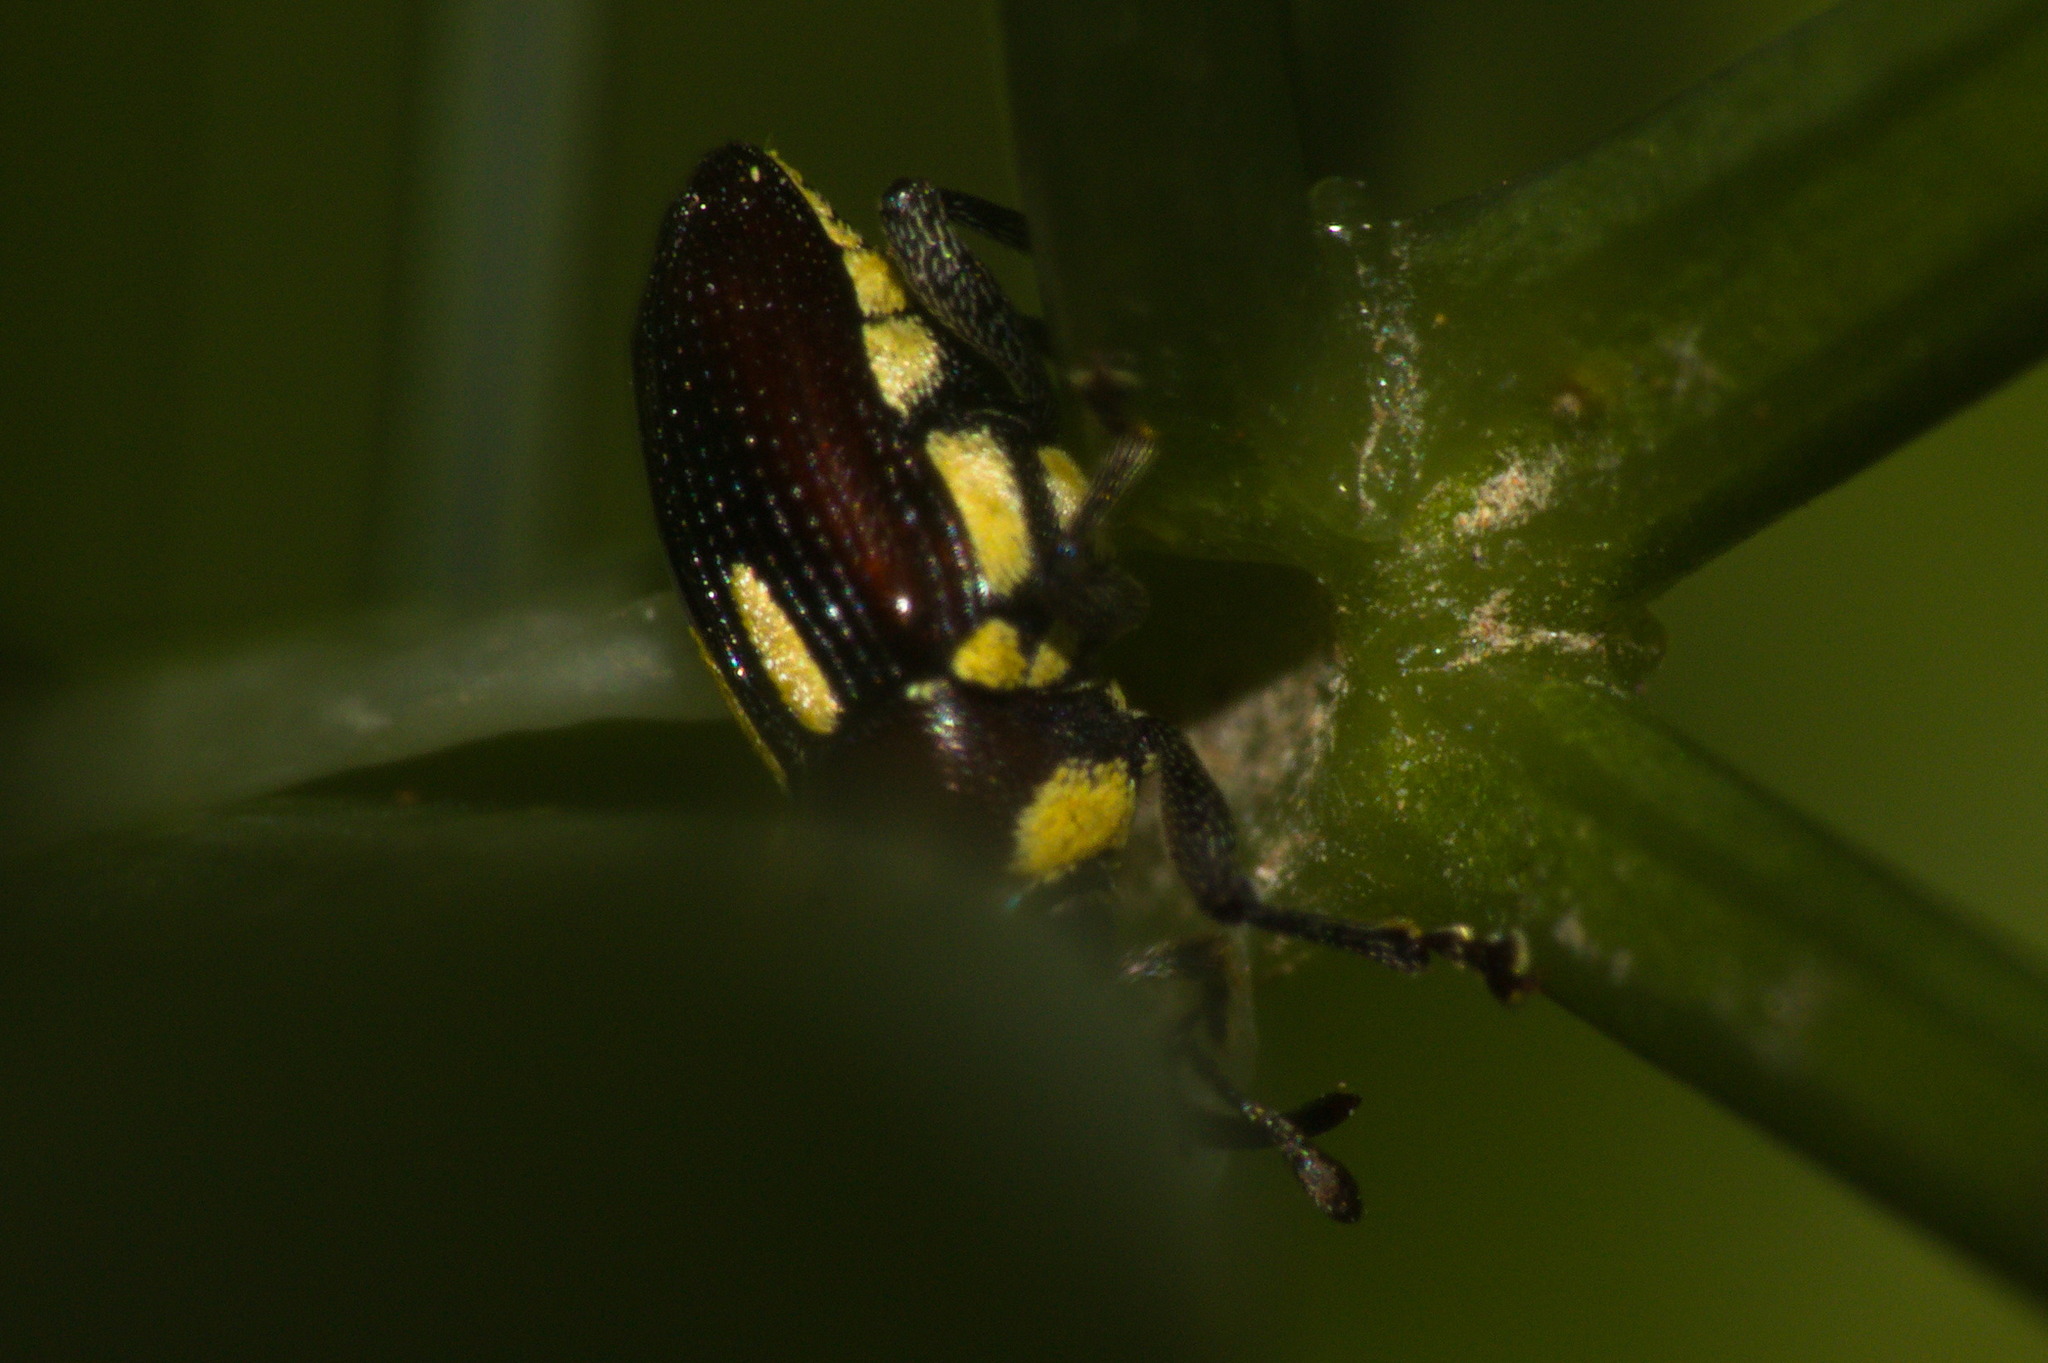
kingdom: Animalia
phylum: Arthropoda
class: Insecta
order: Coleoptera
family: Curculionidae
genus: Dimesus
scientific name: Dimesus
